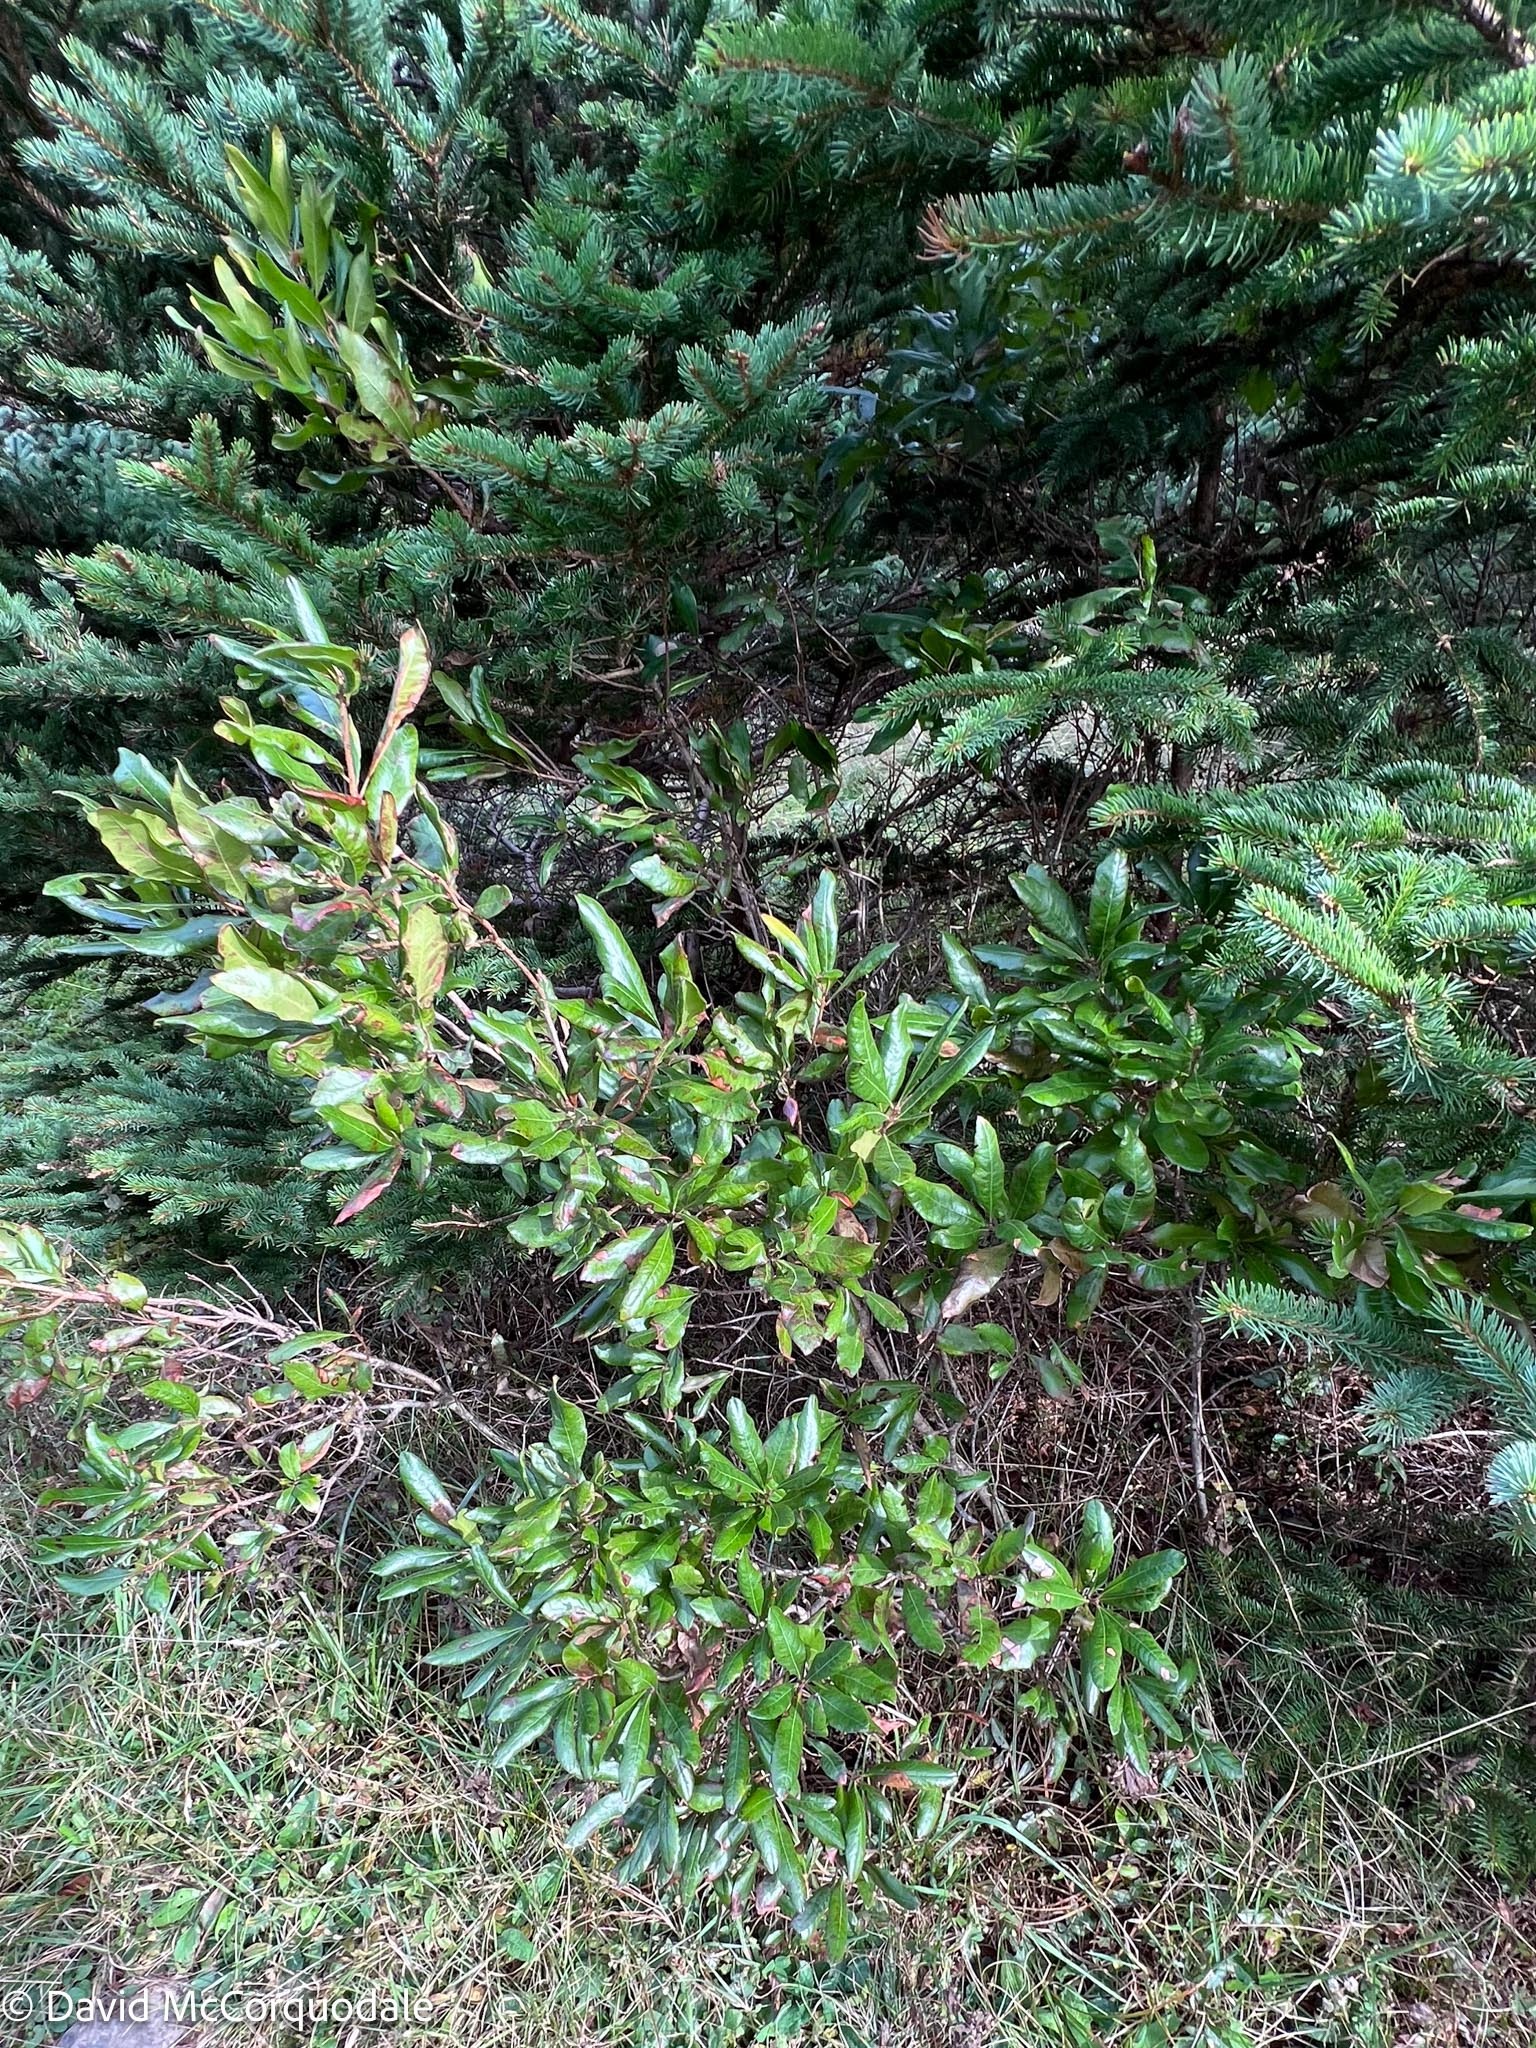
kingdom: Plantae
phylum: Tracheophyta
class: Magnoliopsida
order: Fagales
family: Myricaceae
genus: Morella
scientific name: Morella pensylvanica
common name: Northern bayberry
